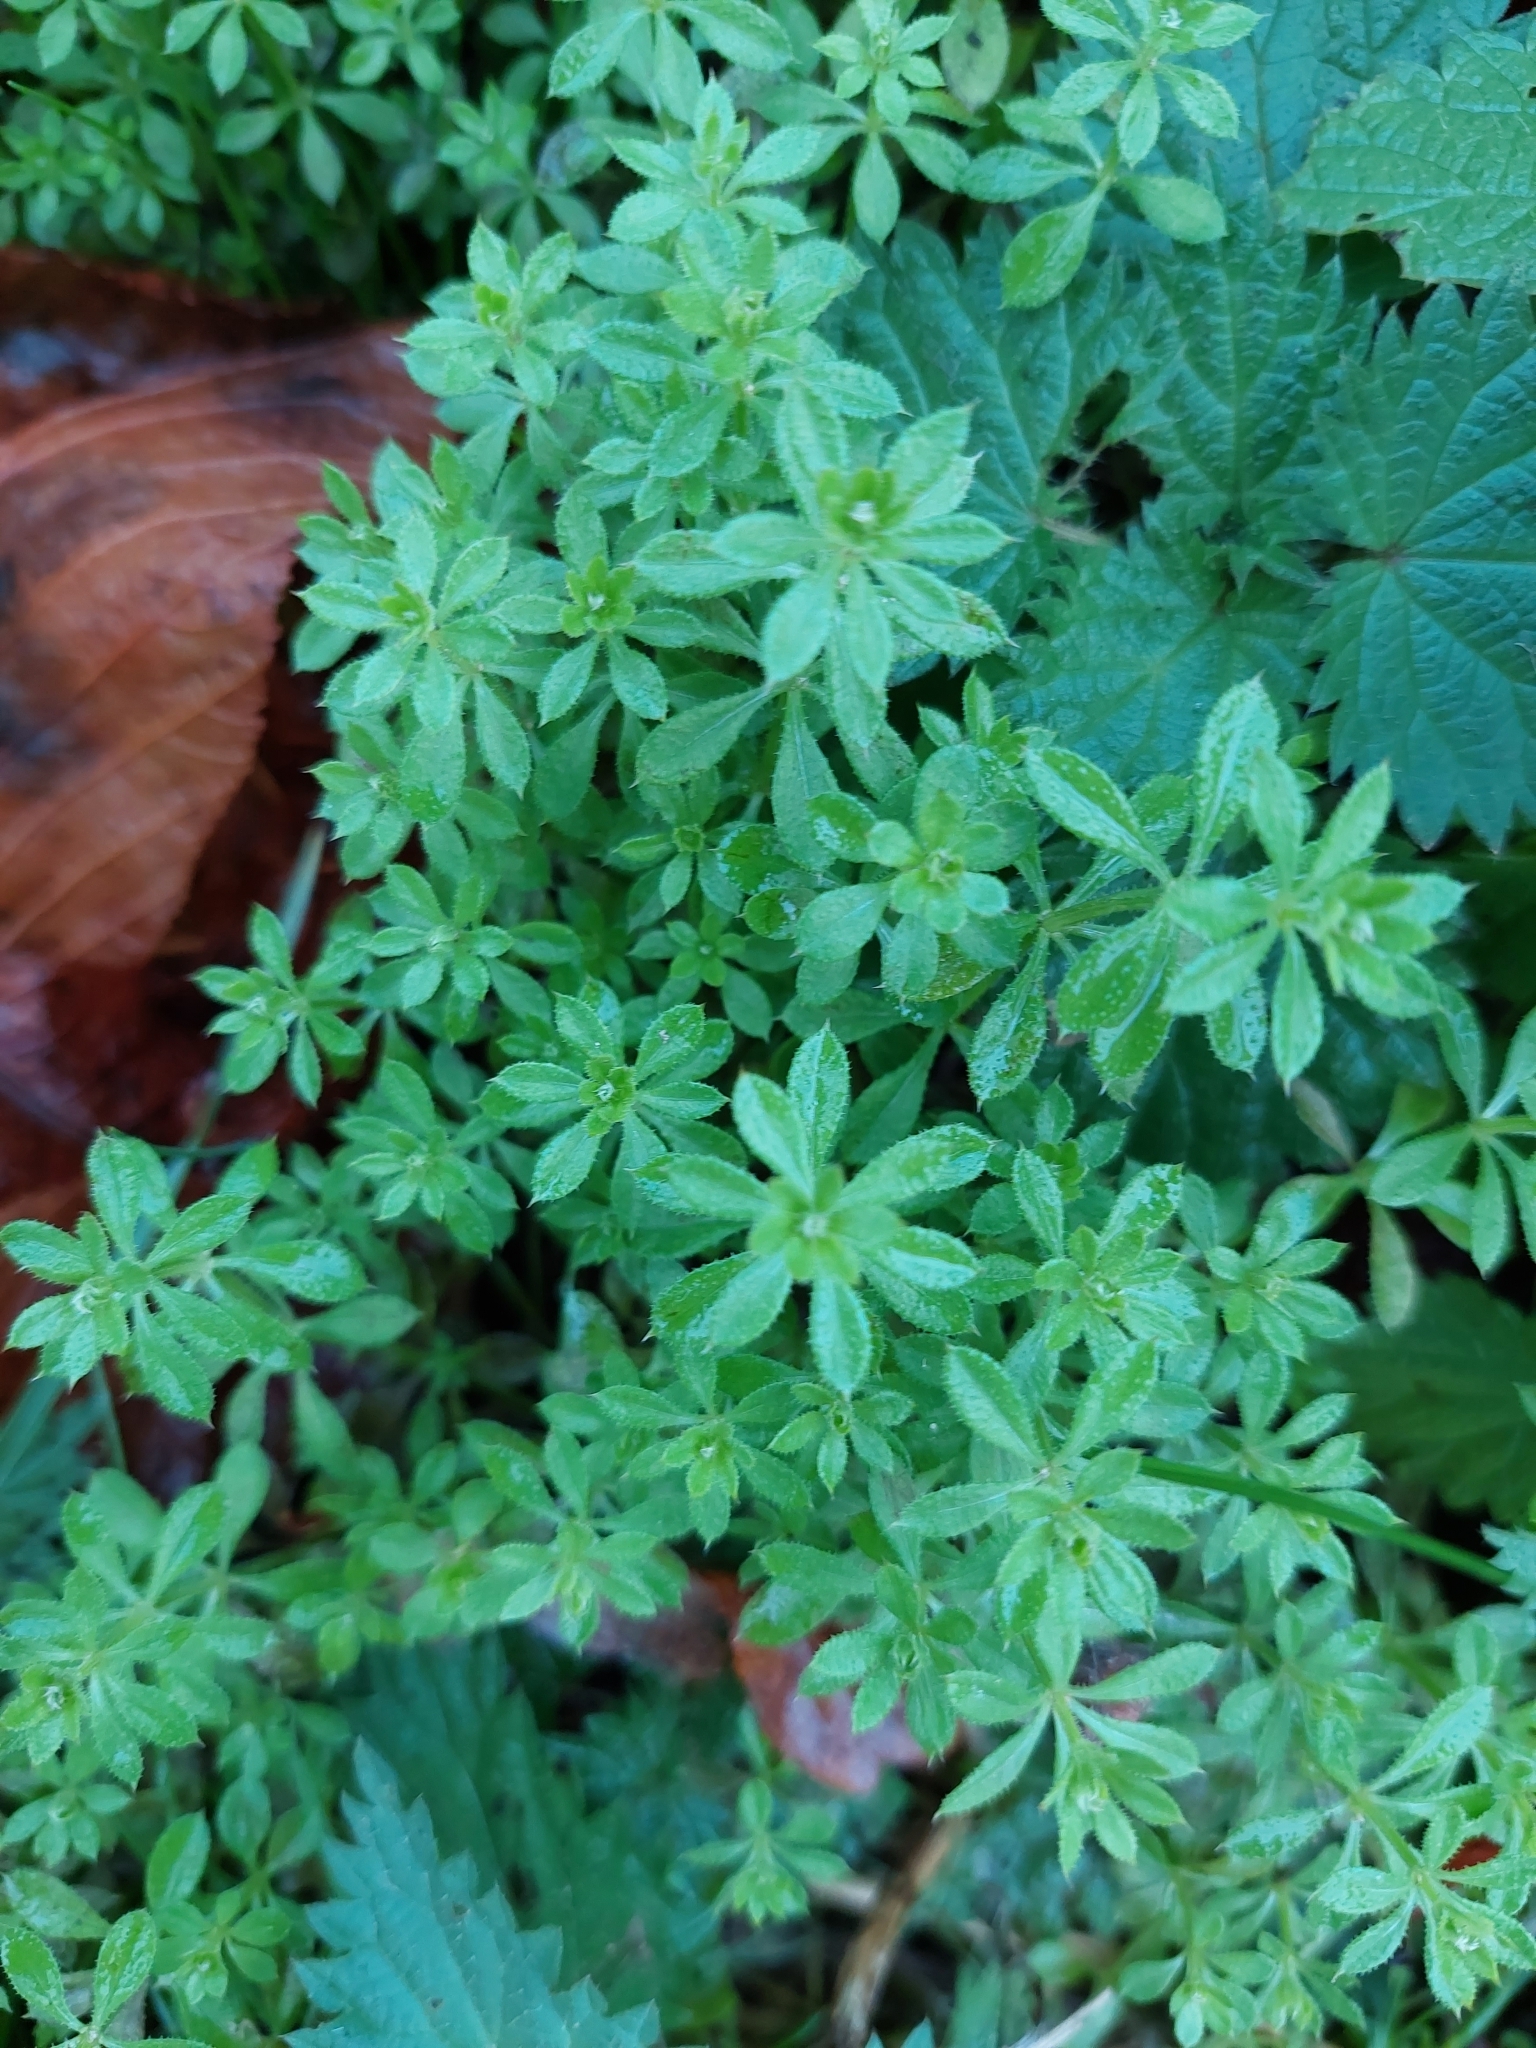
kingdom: Plantae
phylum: Tracheophyta
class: Magnoliopsida
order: Gentianales
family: Rubiaceae
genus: Galium
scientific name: Galium aparine
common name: Cleavers
